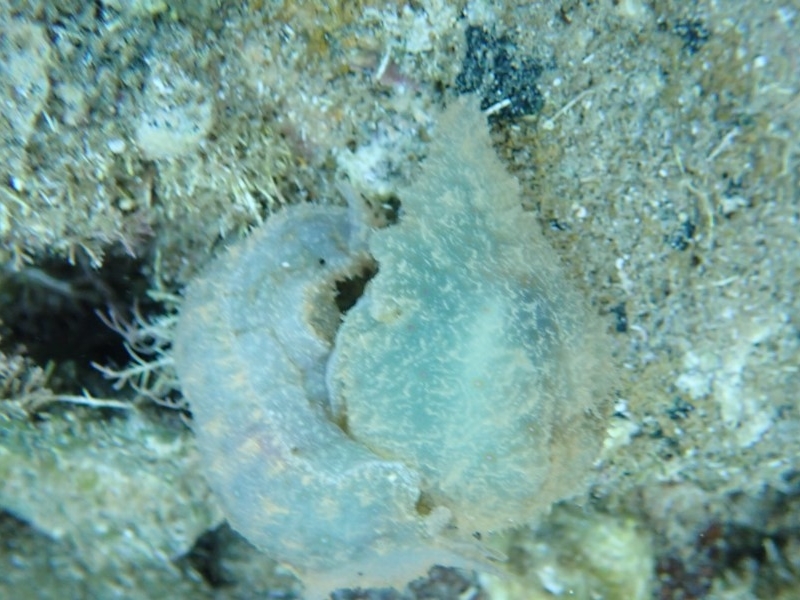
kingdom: Animalia
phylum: Mollusca
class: Gastropoda
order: Aplysiida
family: Aplysiidae
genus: Stylocheilus
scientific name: Stylocheilus striatus
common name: Striated seahare
